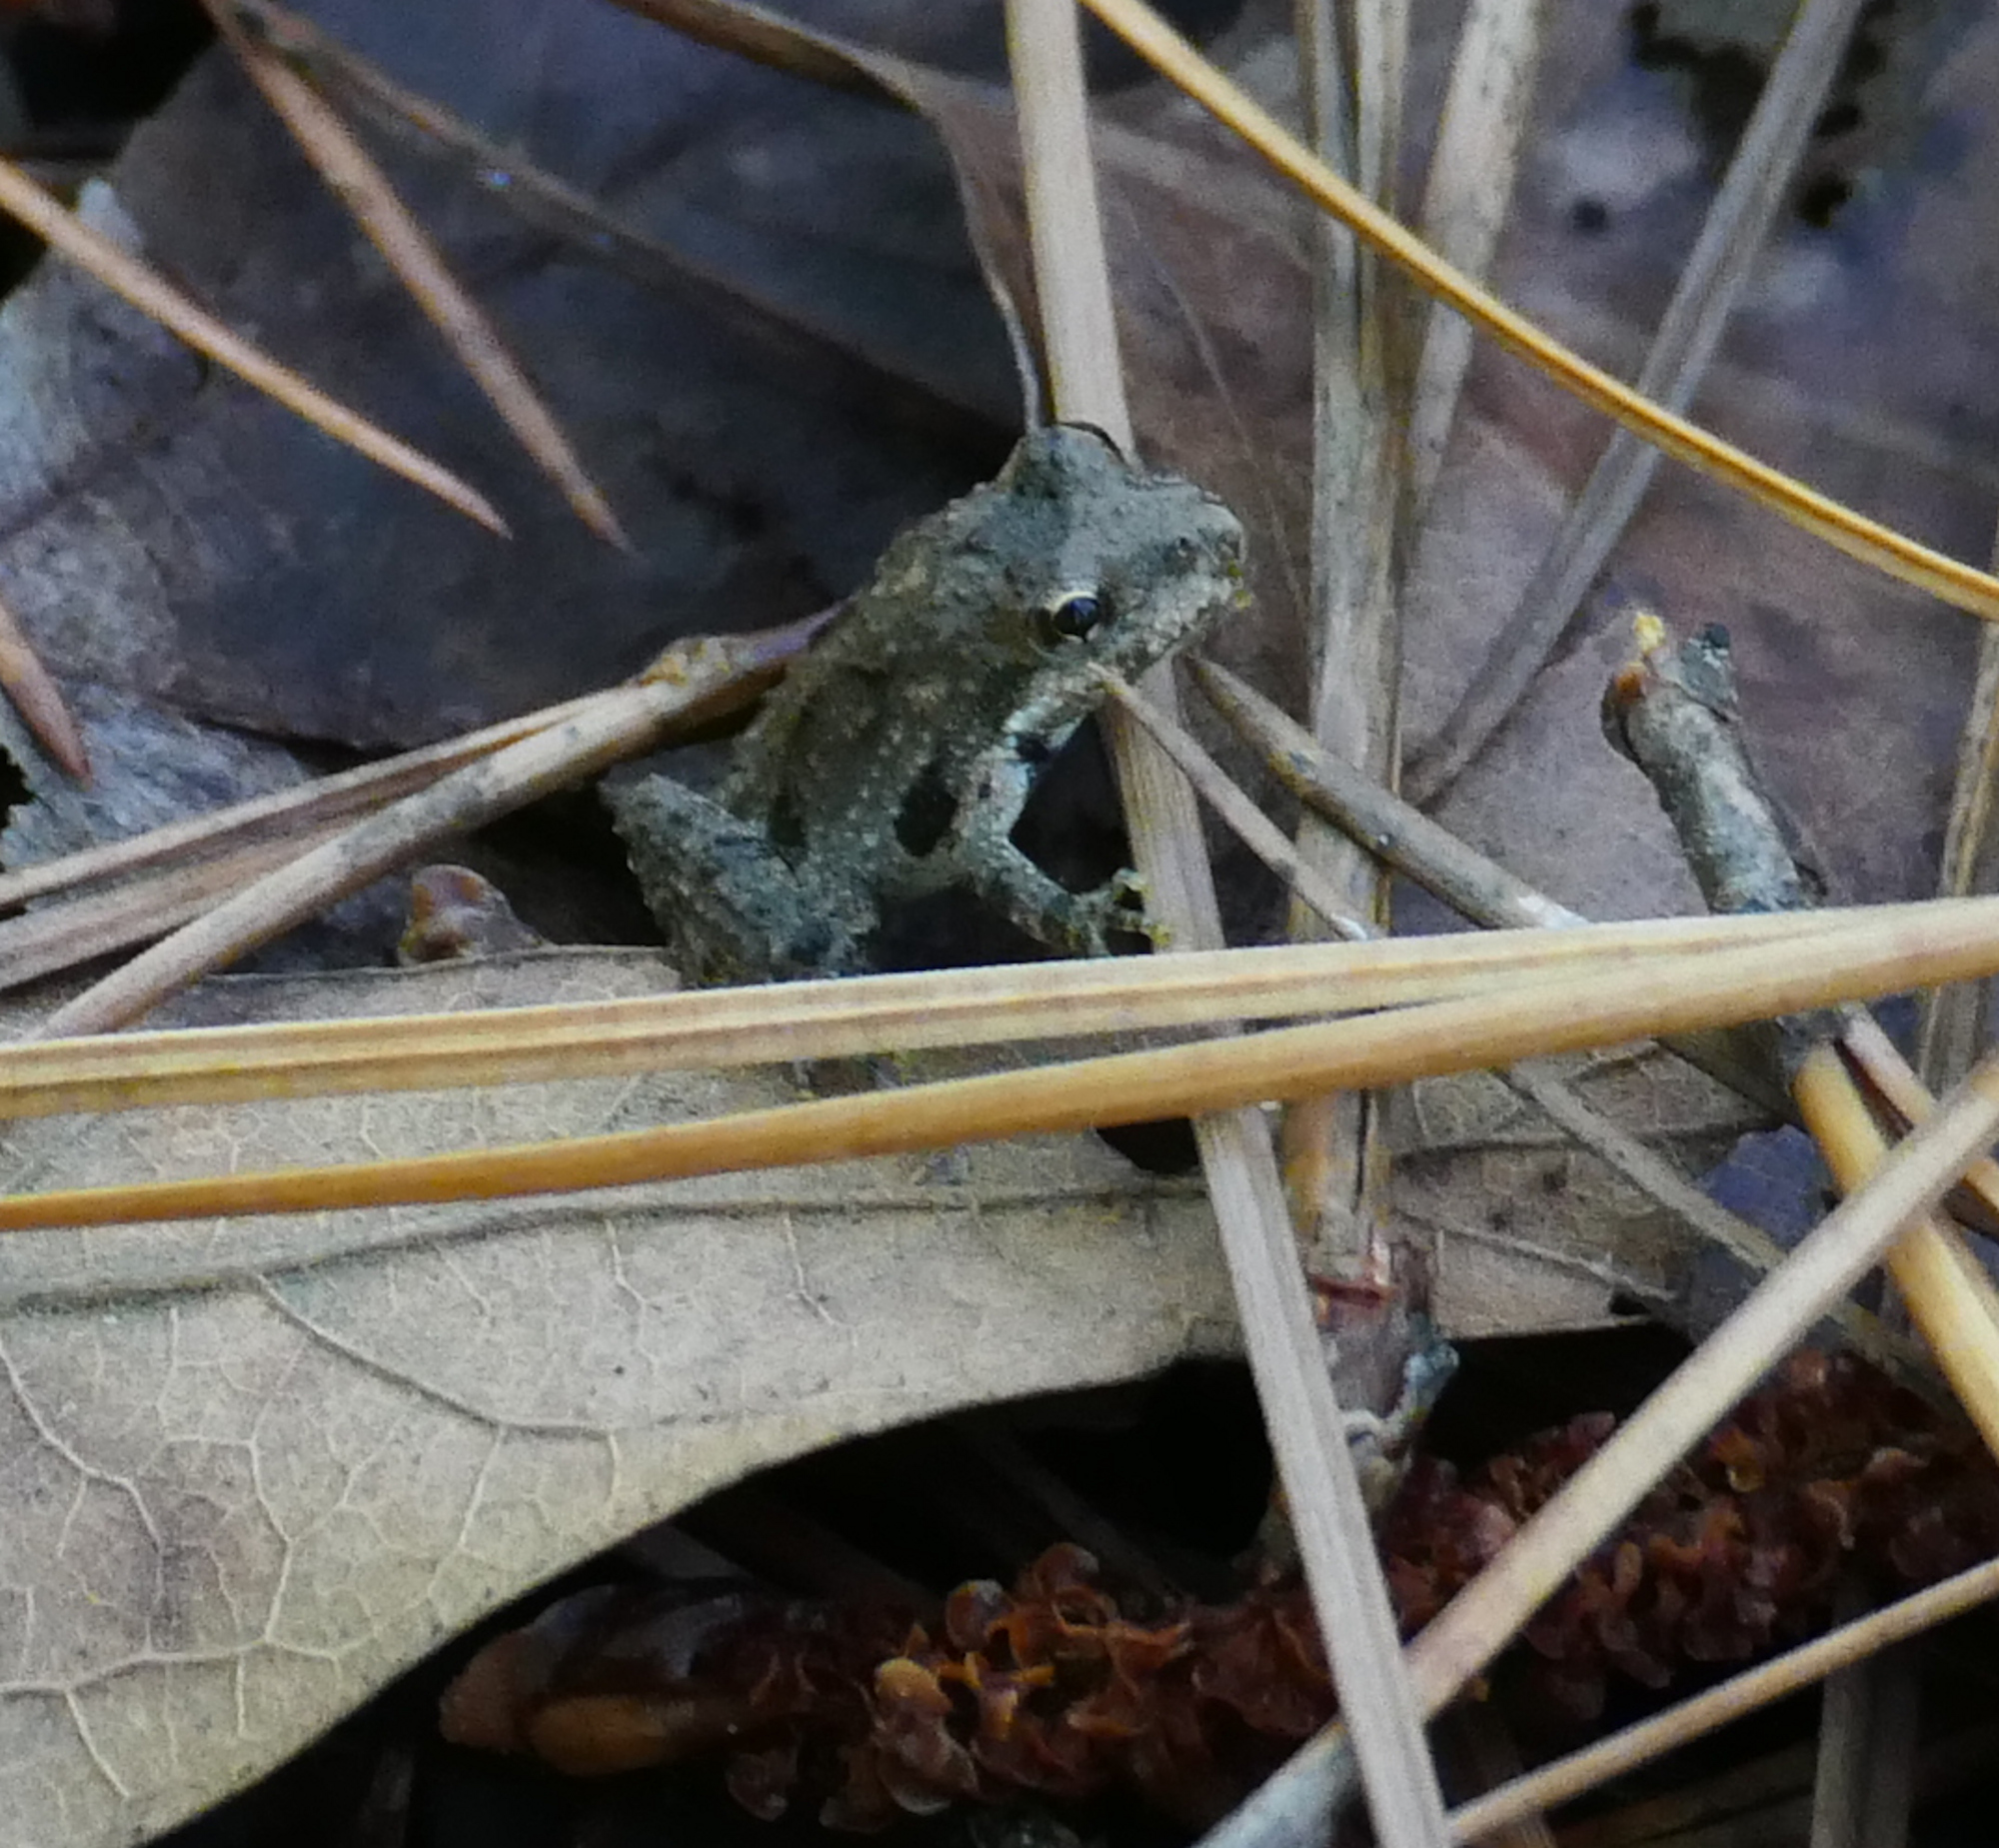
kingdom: Animalia
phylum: Chordata
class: Amphibia
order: Anura
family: Hylidae
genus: Acris
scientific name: Acris crepitans
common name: Northern cricket frog
